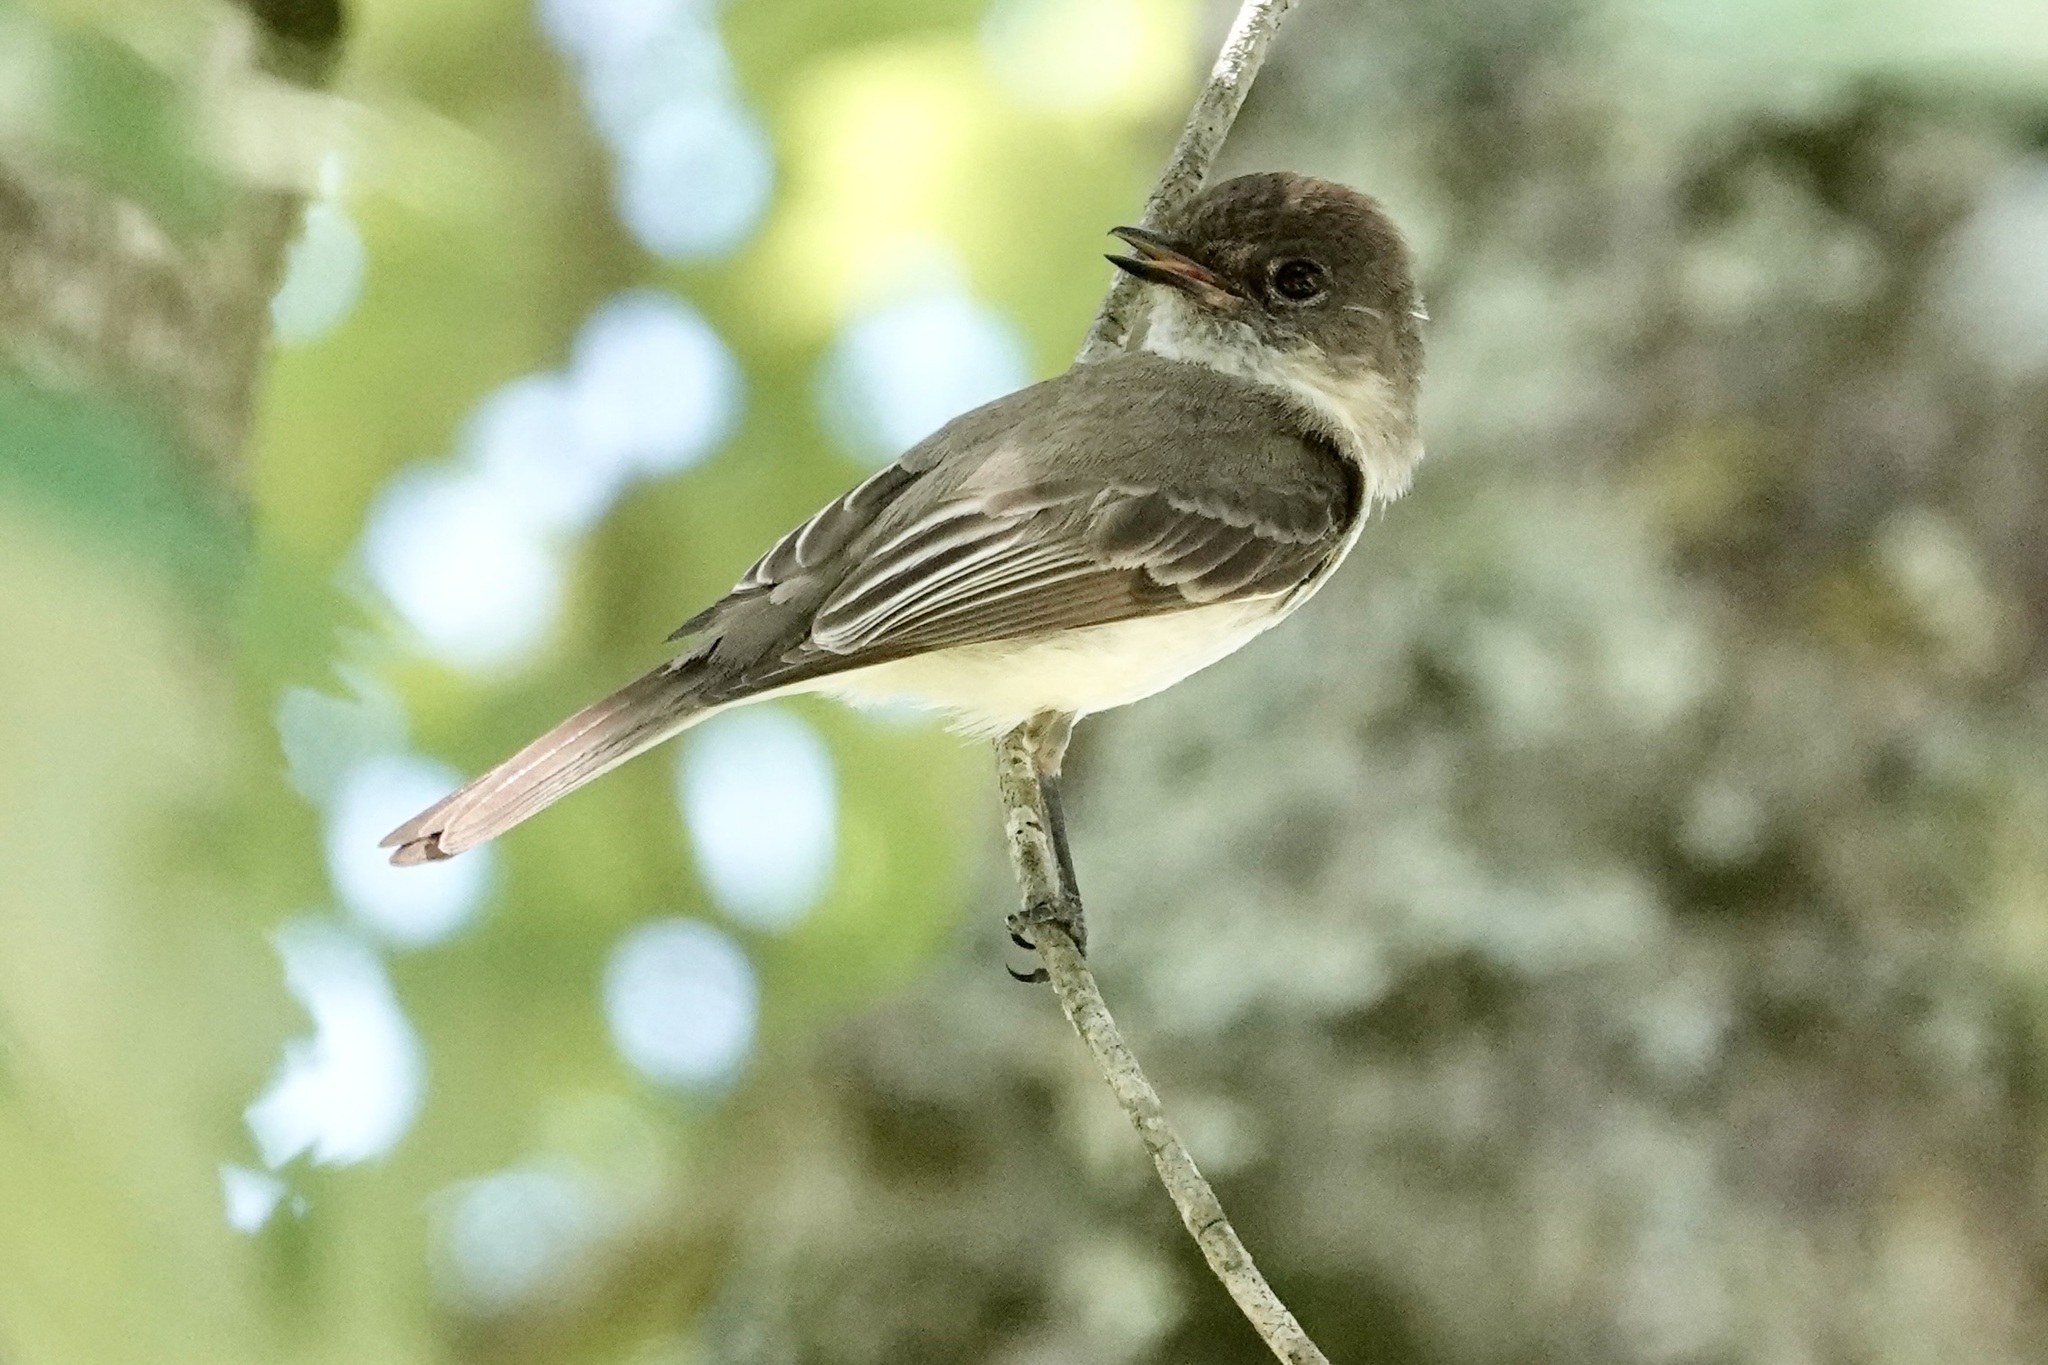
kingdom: Animalia
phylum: Chordata
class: Aves
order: Passeriformes
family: Tyrannidae
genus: Sayornis
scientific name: Sayornis phoebe
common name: Eastern phoebe
